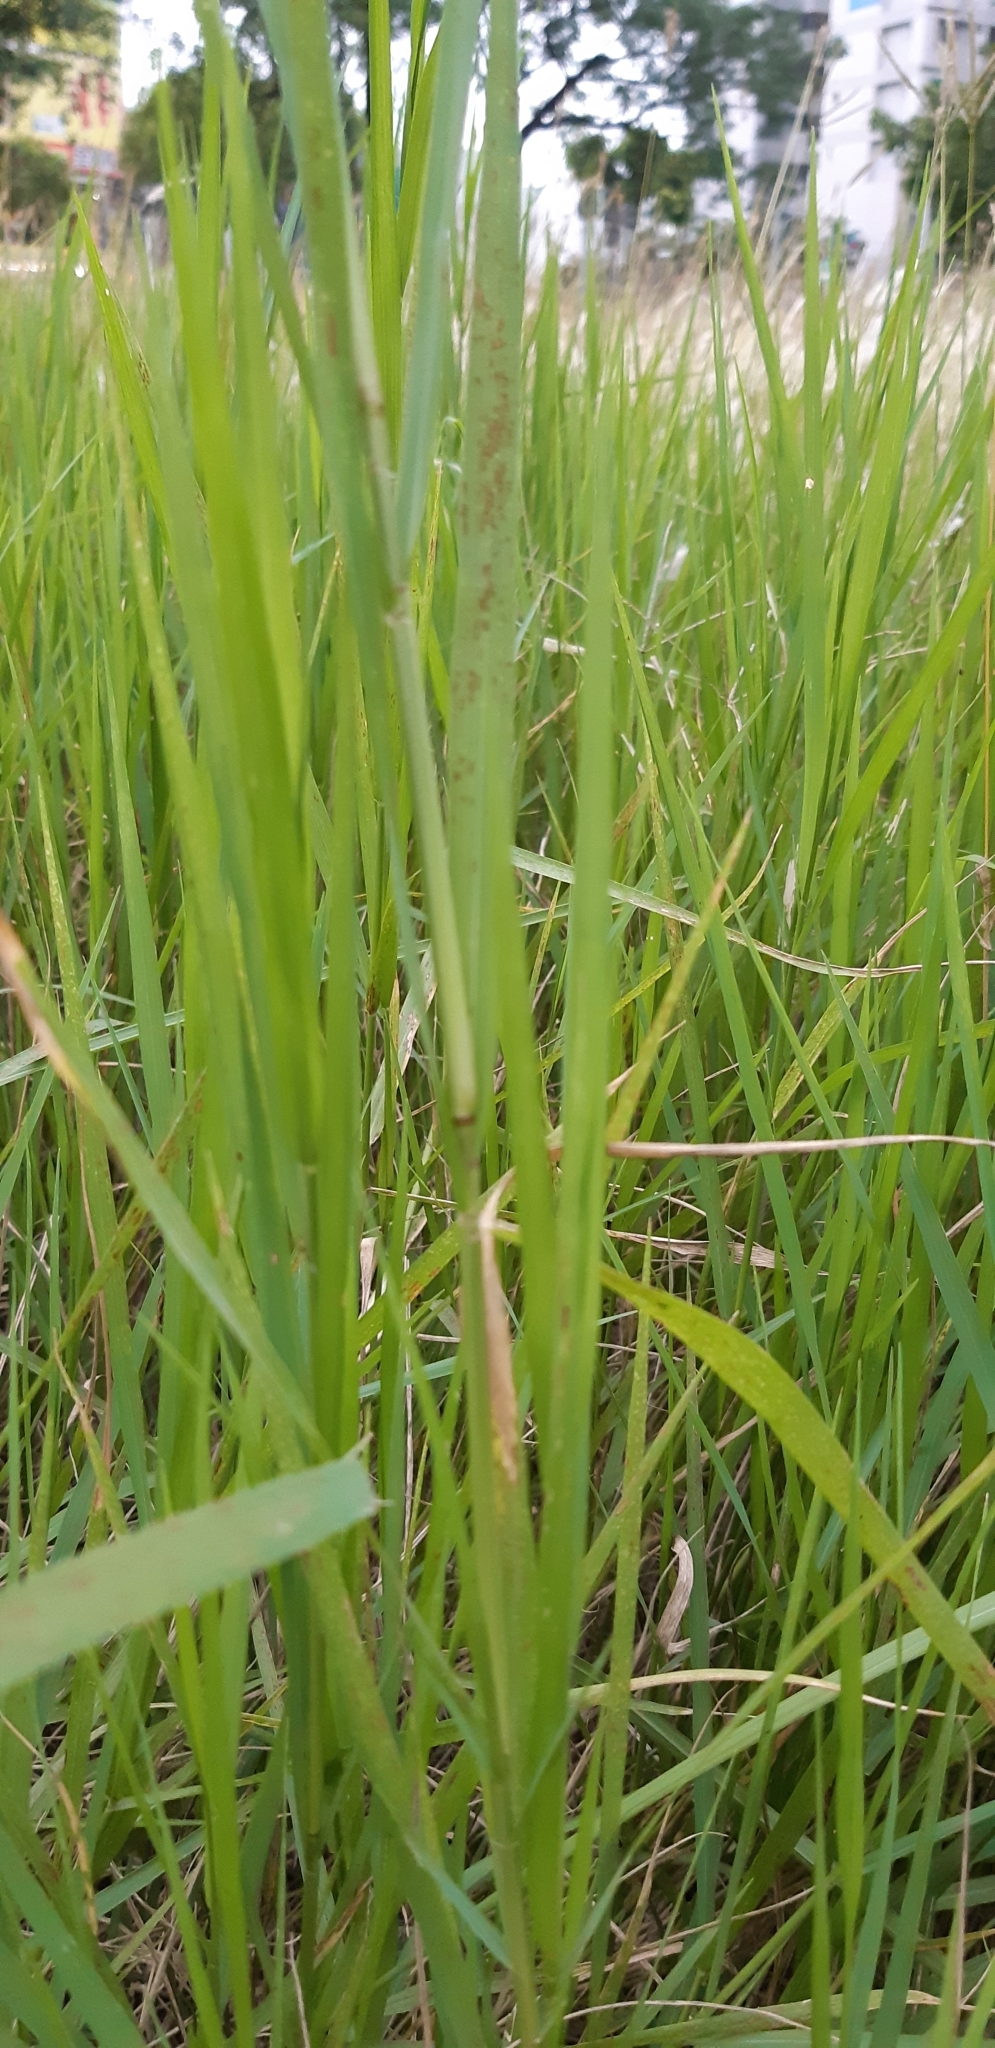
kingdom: Plantae
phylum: Tracheophyta
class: Liliopsida
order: Poales
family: Poaceae
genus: Imperata
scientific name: Imperata cylindrica
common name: Cogongrass
